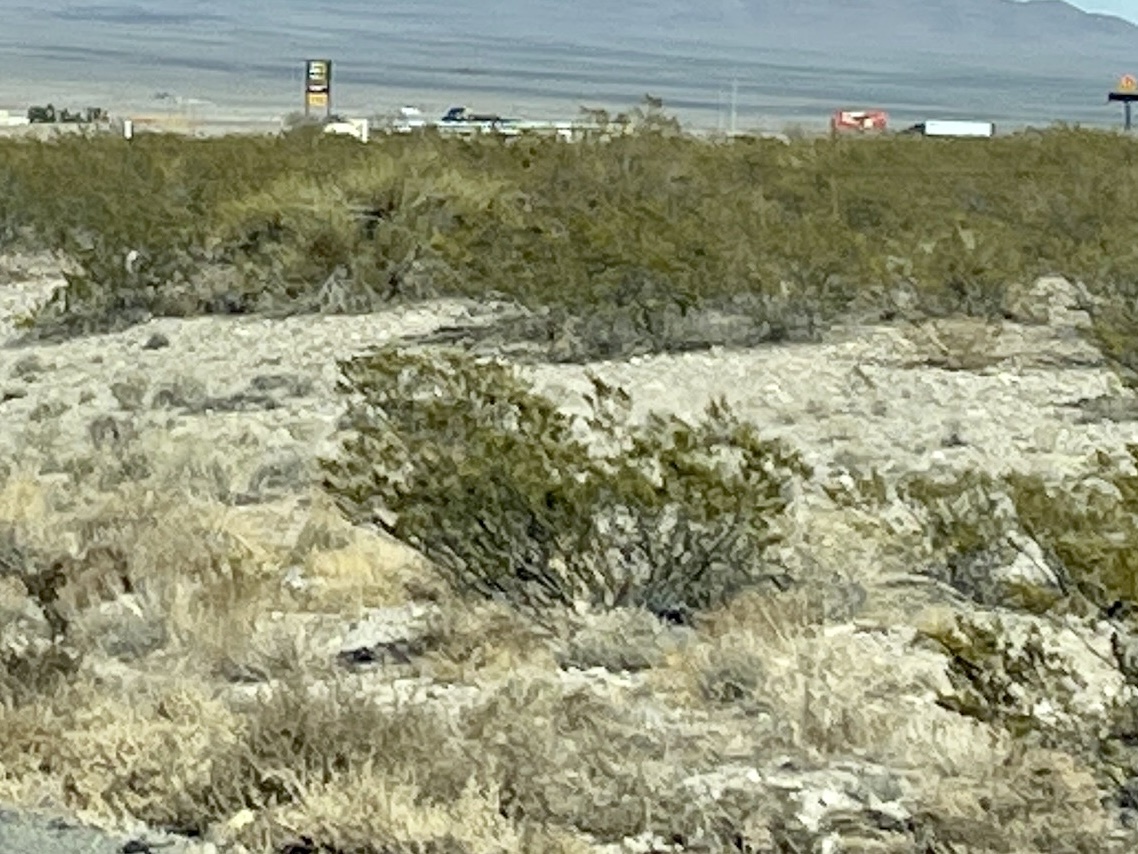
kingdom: Plantae
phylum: Tracheophyta
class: Magnoliopsida
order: Zygophyllales
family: Zygophyllaceae
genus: Larrea
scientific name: Larrea tridentata
